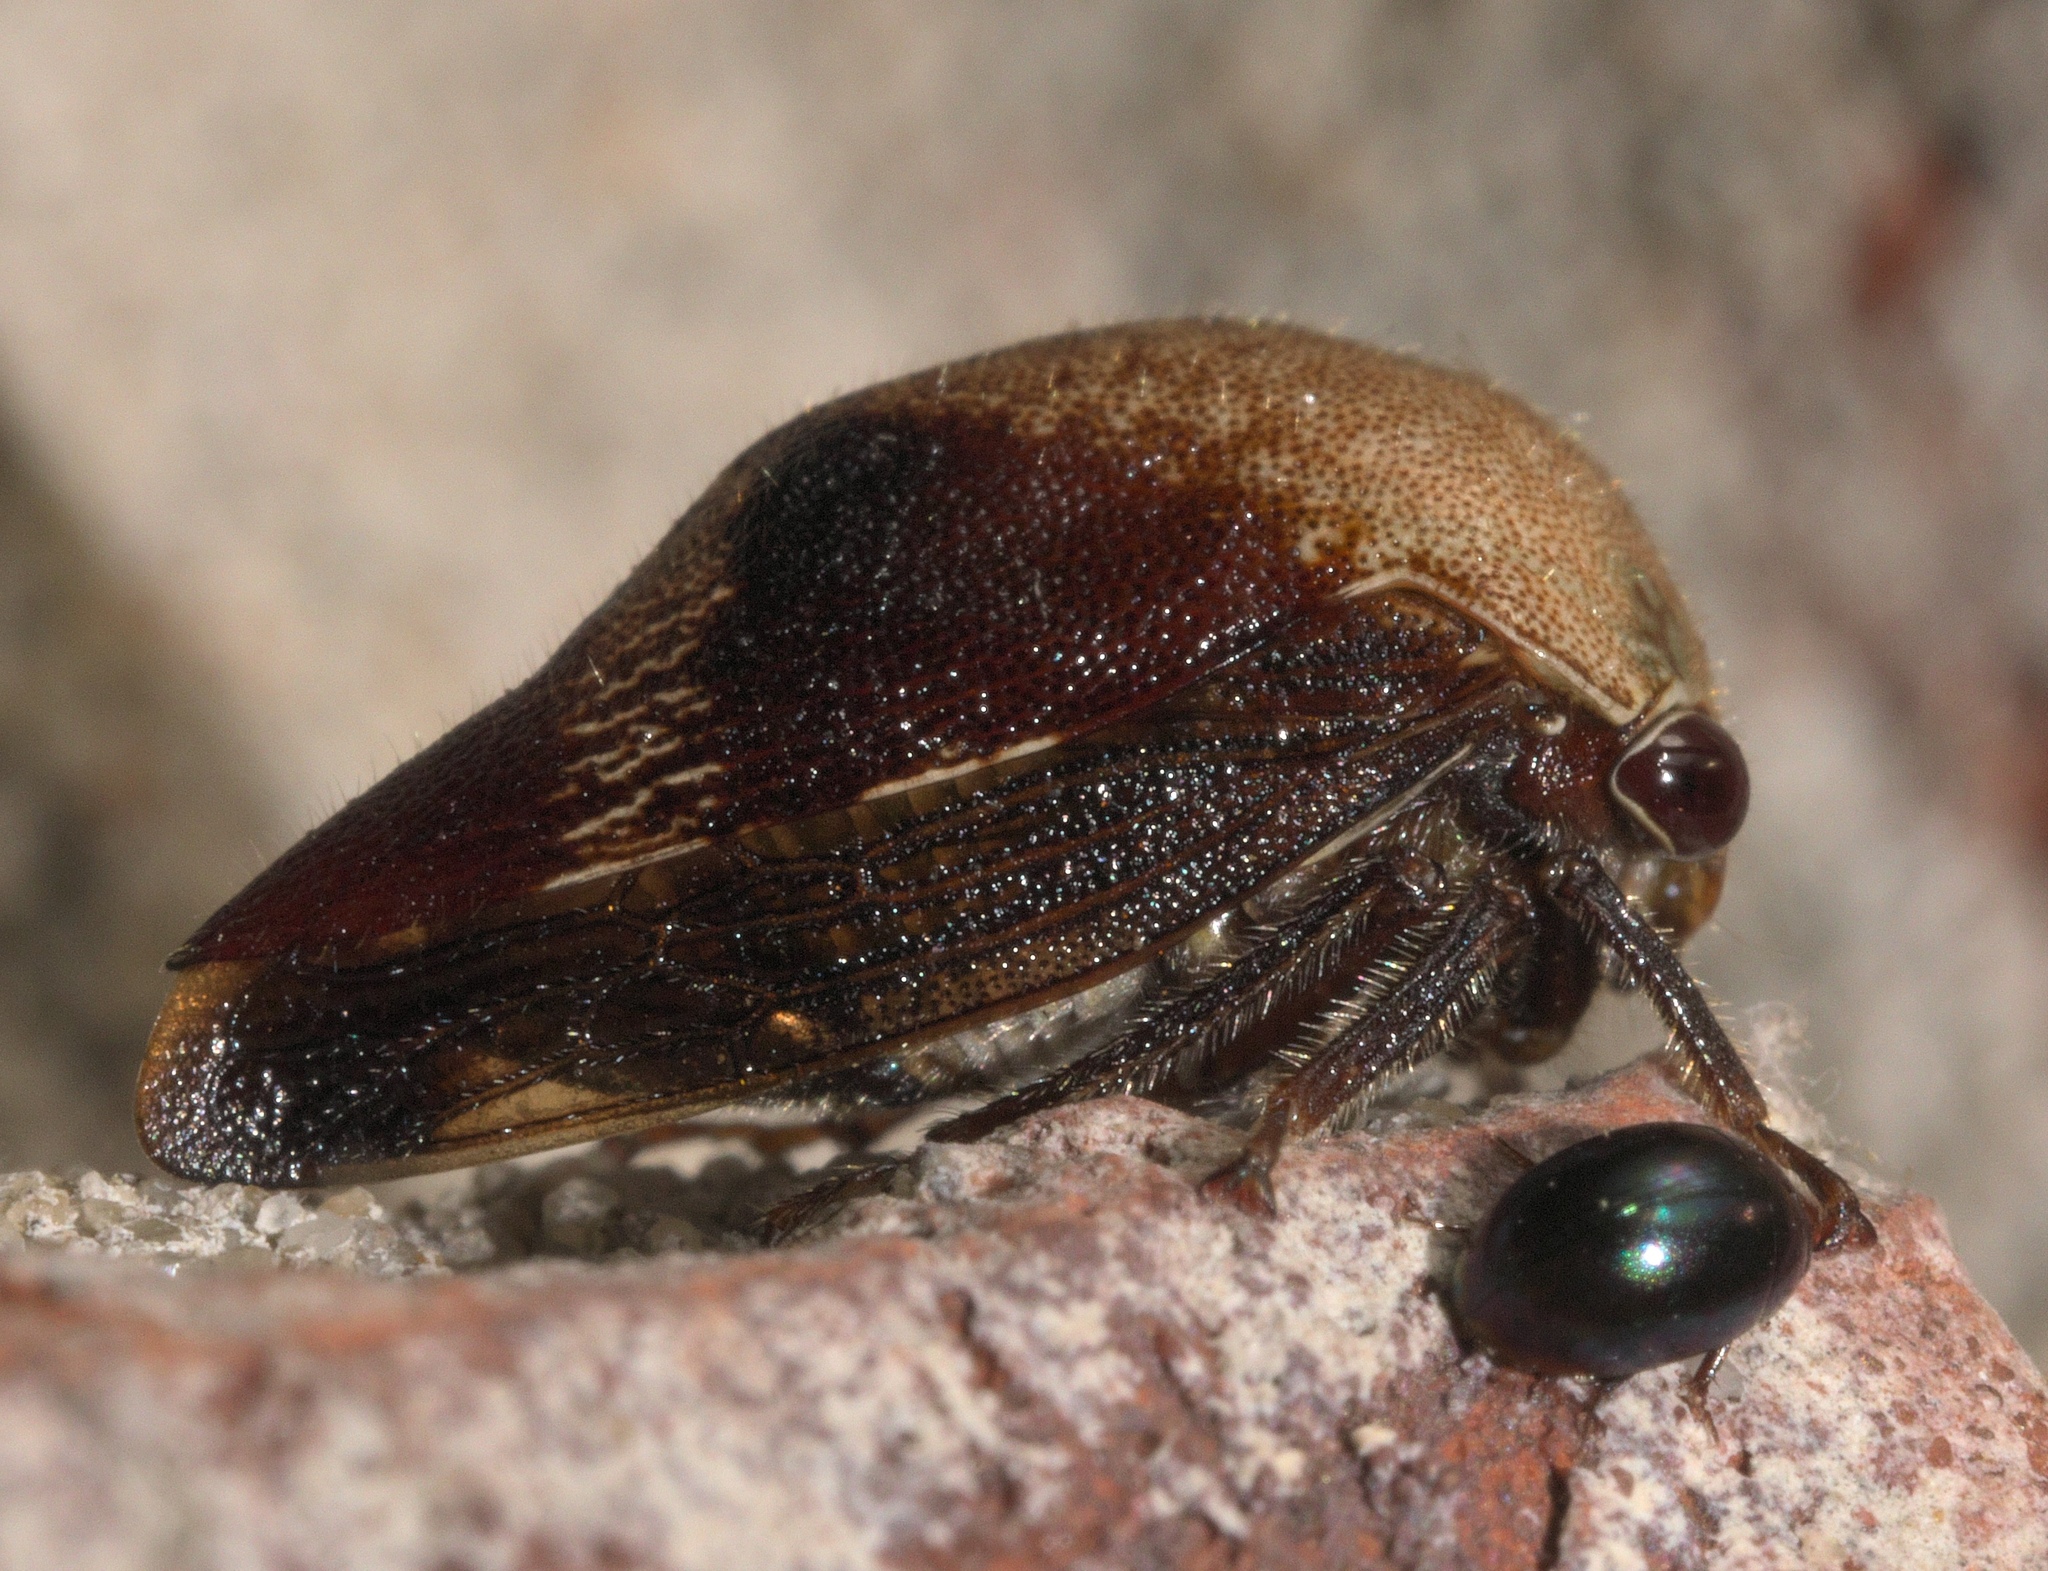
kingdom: Animalia
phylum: Arthropoda
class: Insecta
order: Hemiptera
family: Membracidae
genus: Carynota
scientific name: Carynota mera
